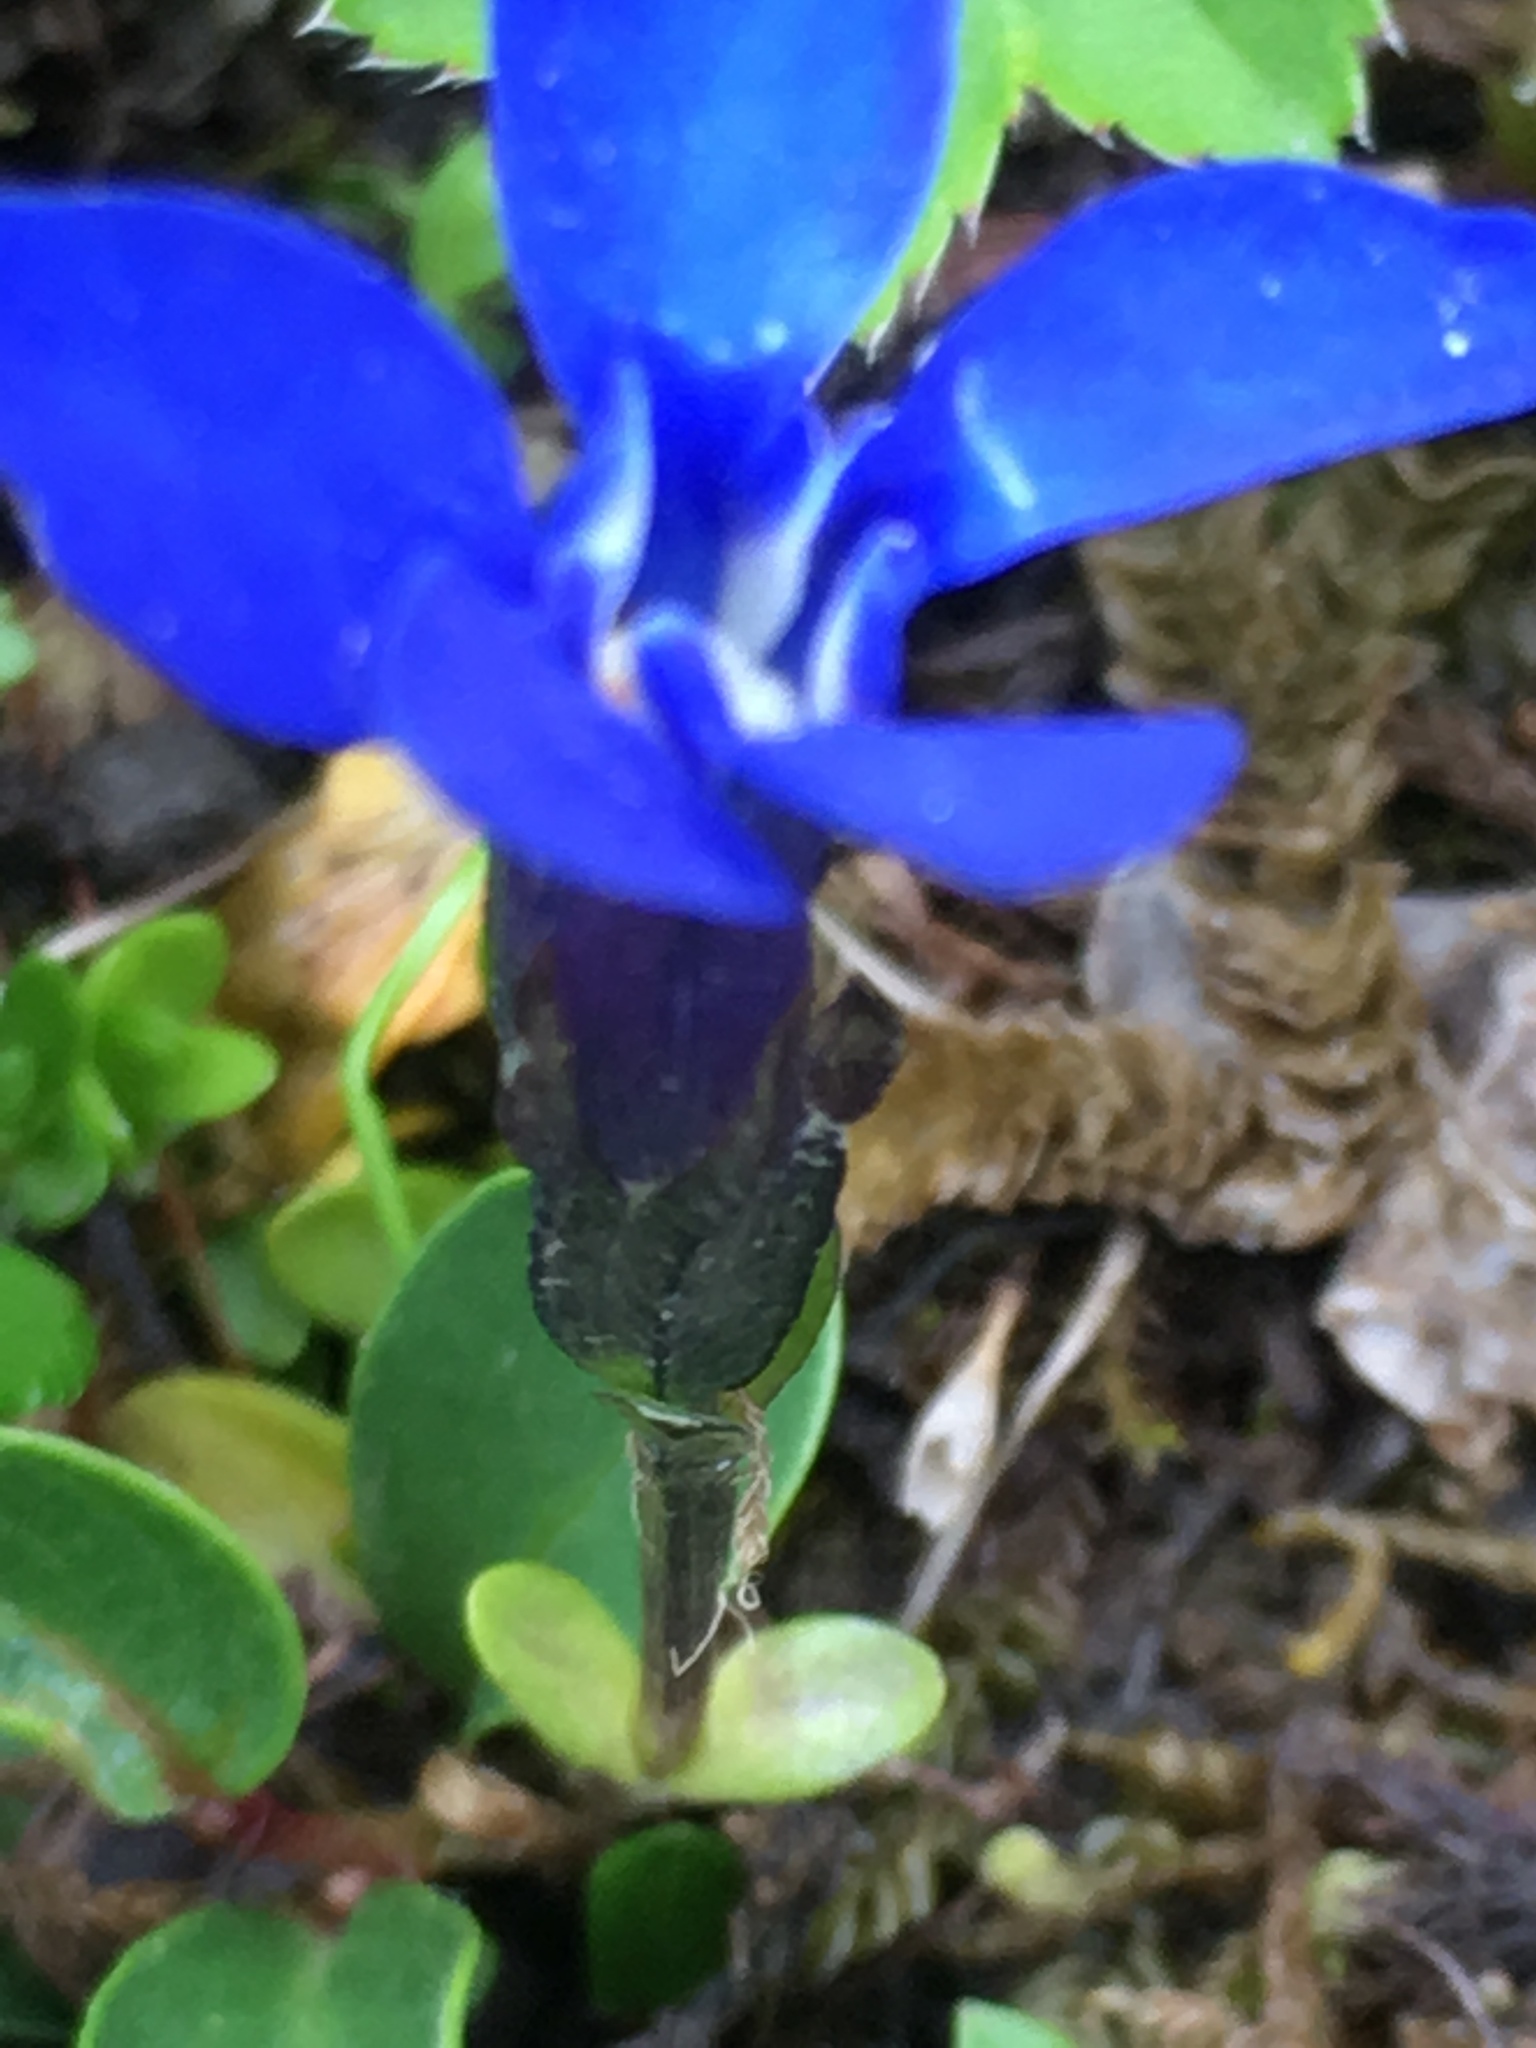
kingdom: Plantae
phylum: Tracheophyta
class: Magnoliopsida
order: Gentianales
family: Gentianaceae
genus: Gentiana
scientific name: Gentiana bavarica
